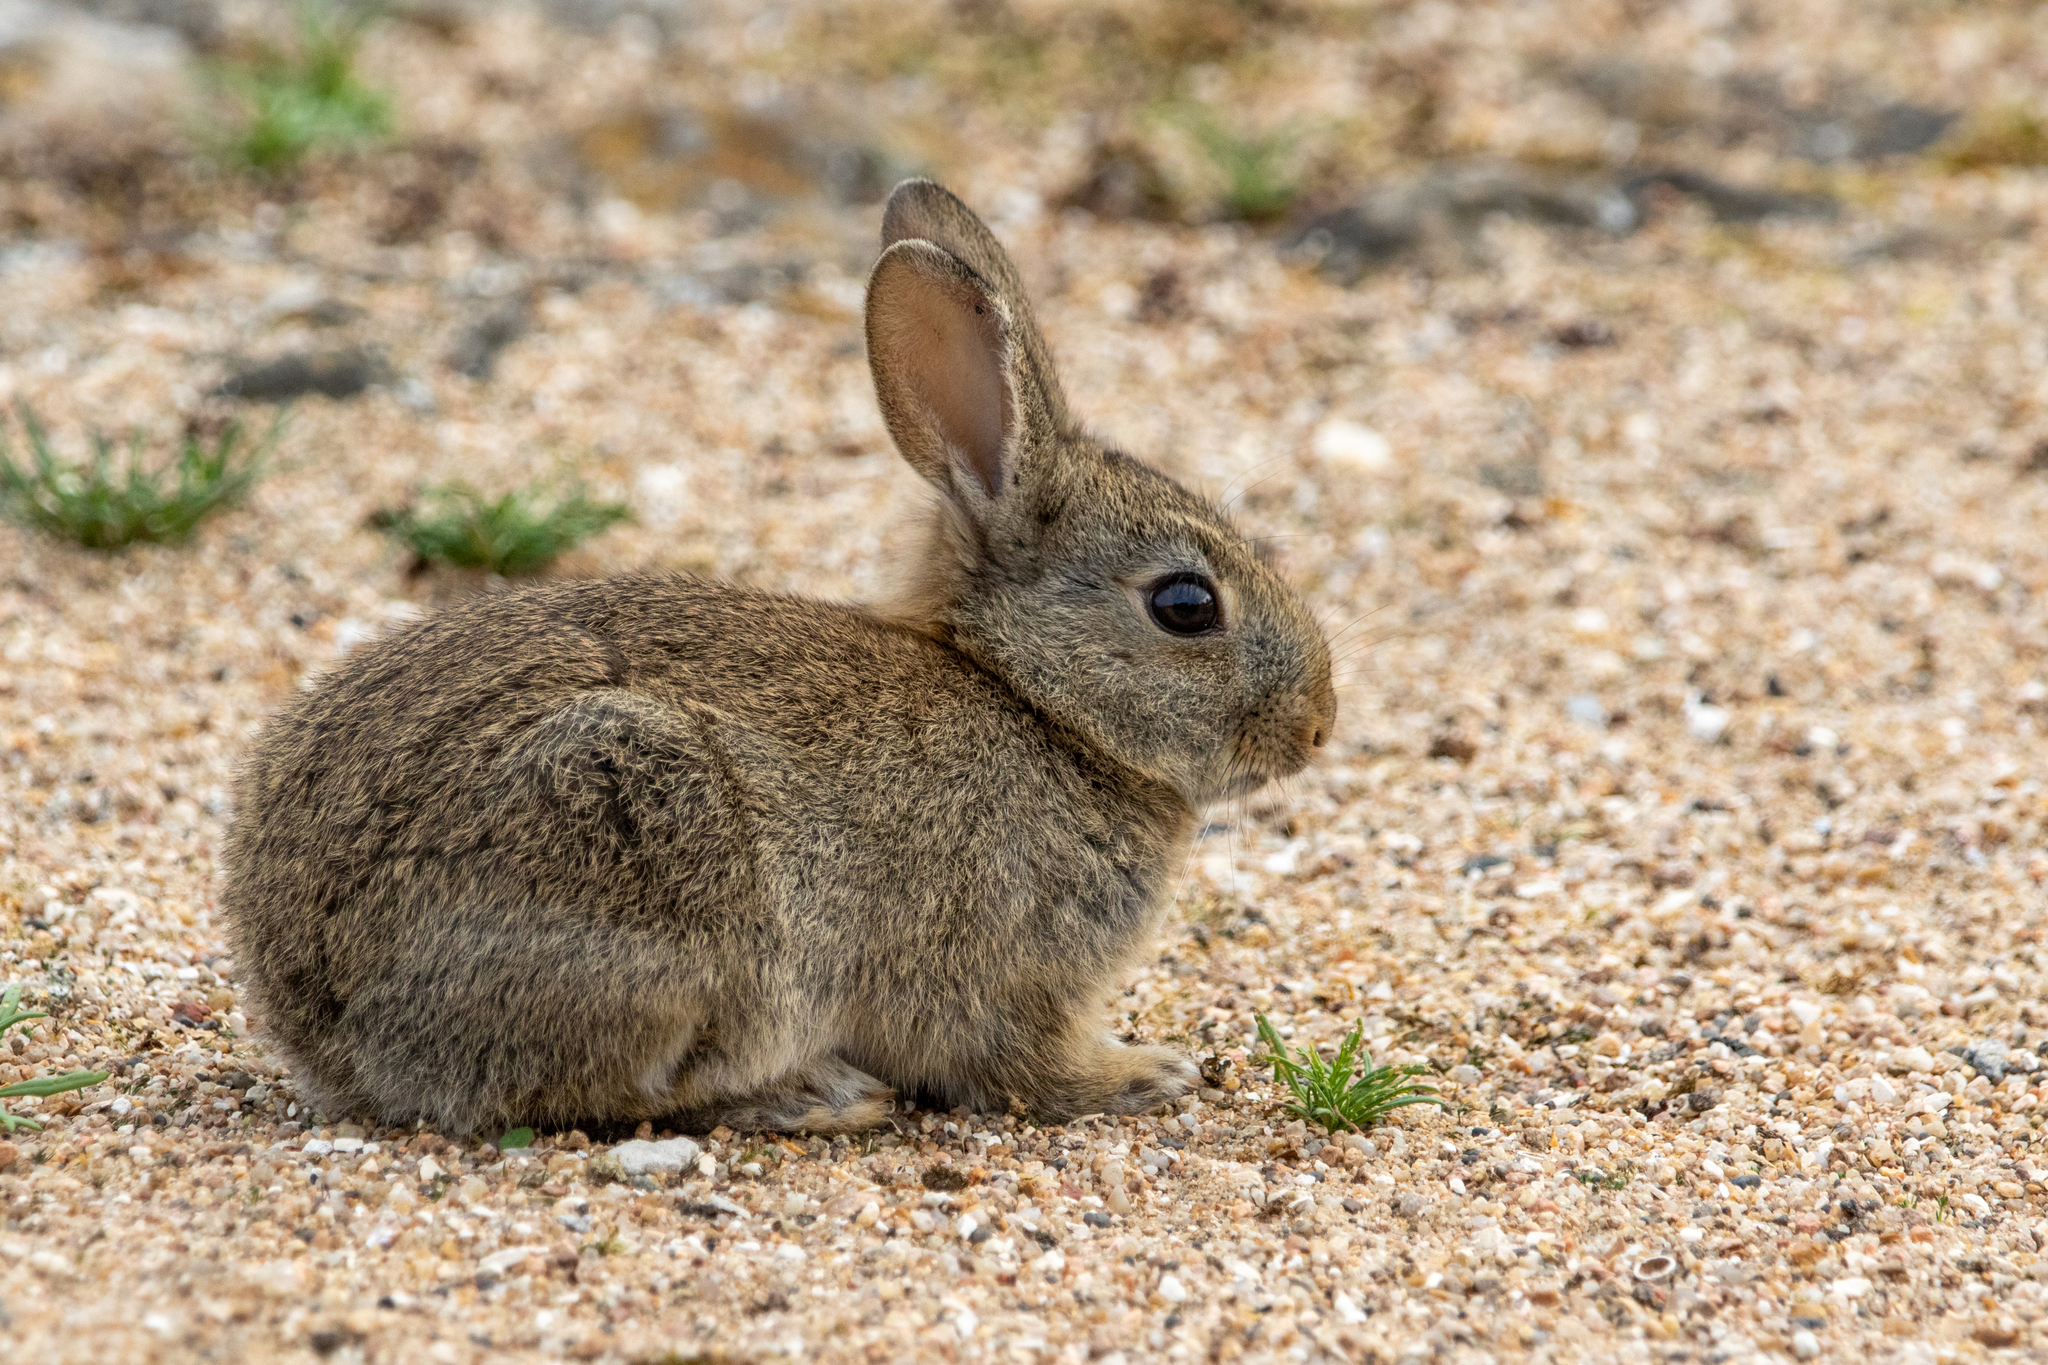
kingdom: Animalia
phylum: Chordata
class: Mammalia
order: Lagomorpha
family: Leporidae
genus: Oryctolagus
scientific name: Oryctolagus cuniculus
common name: European rabbit
